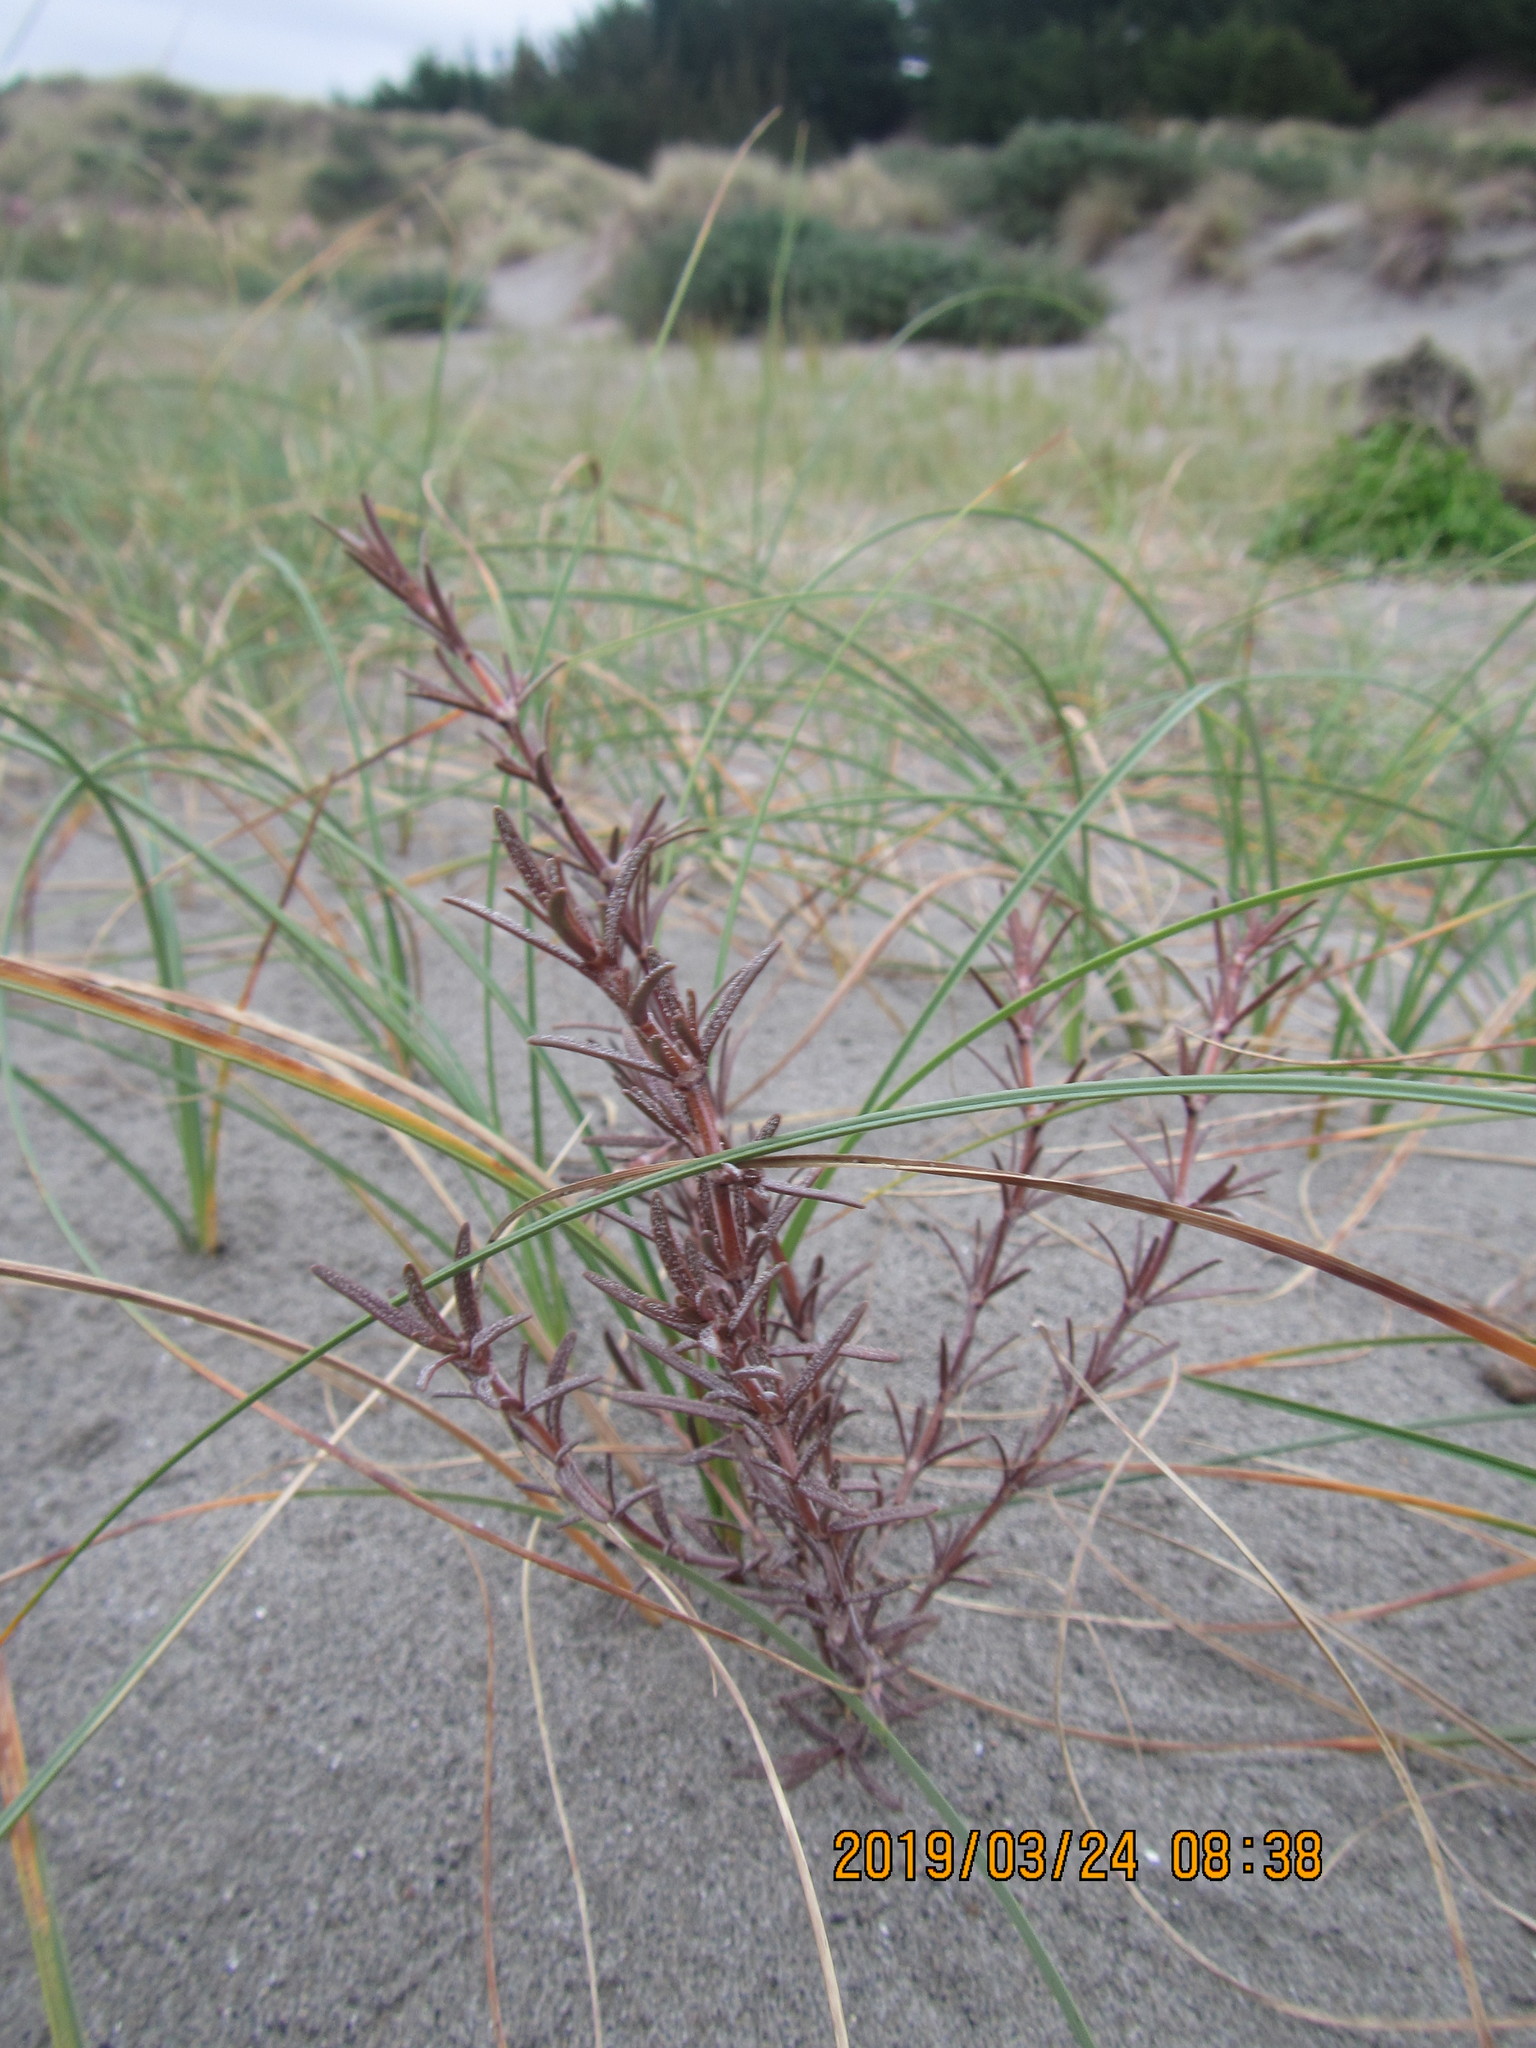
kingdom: Plantae
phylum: Tracheophyta
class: Magnoliopsida
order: Gentianales
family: Rubiaceae
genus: Coprosma
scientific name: Coprosma acerosa
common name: Sand coprosma
